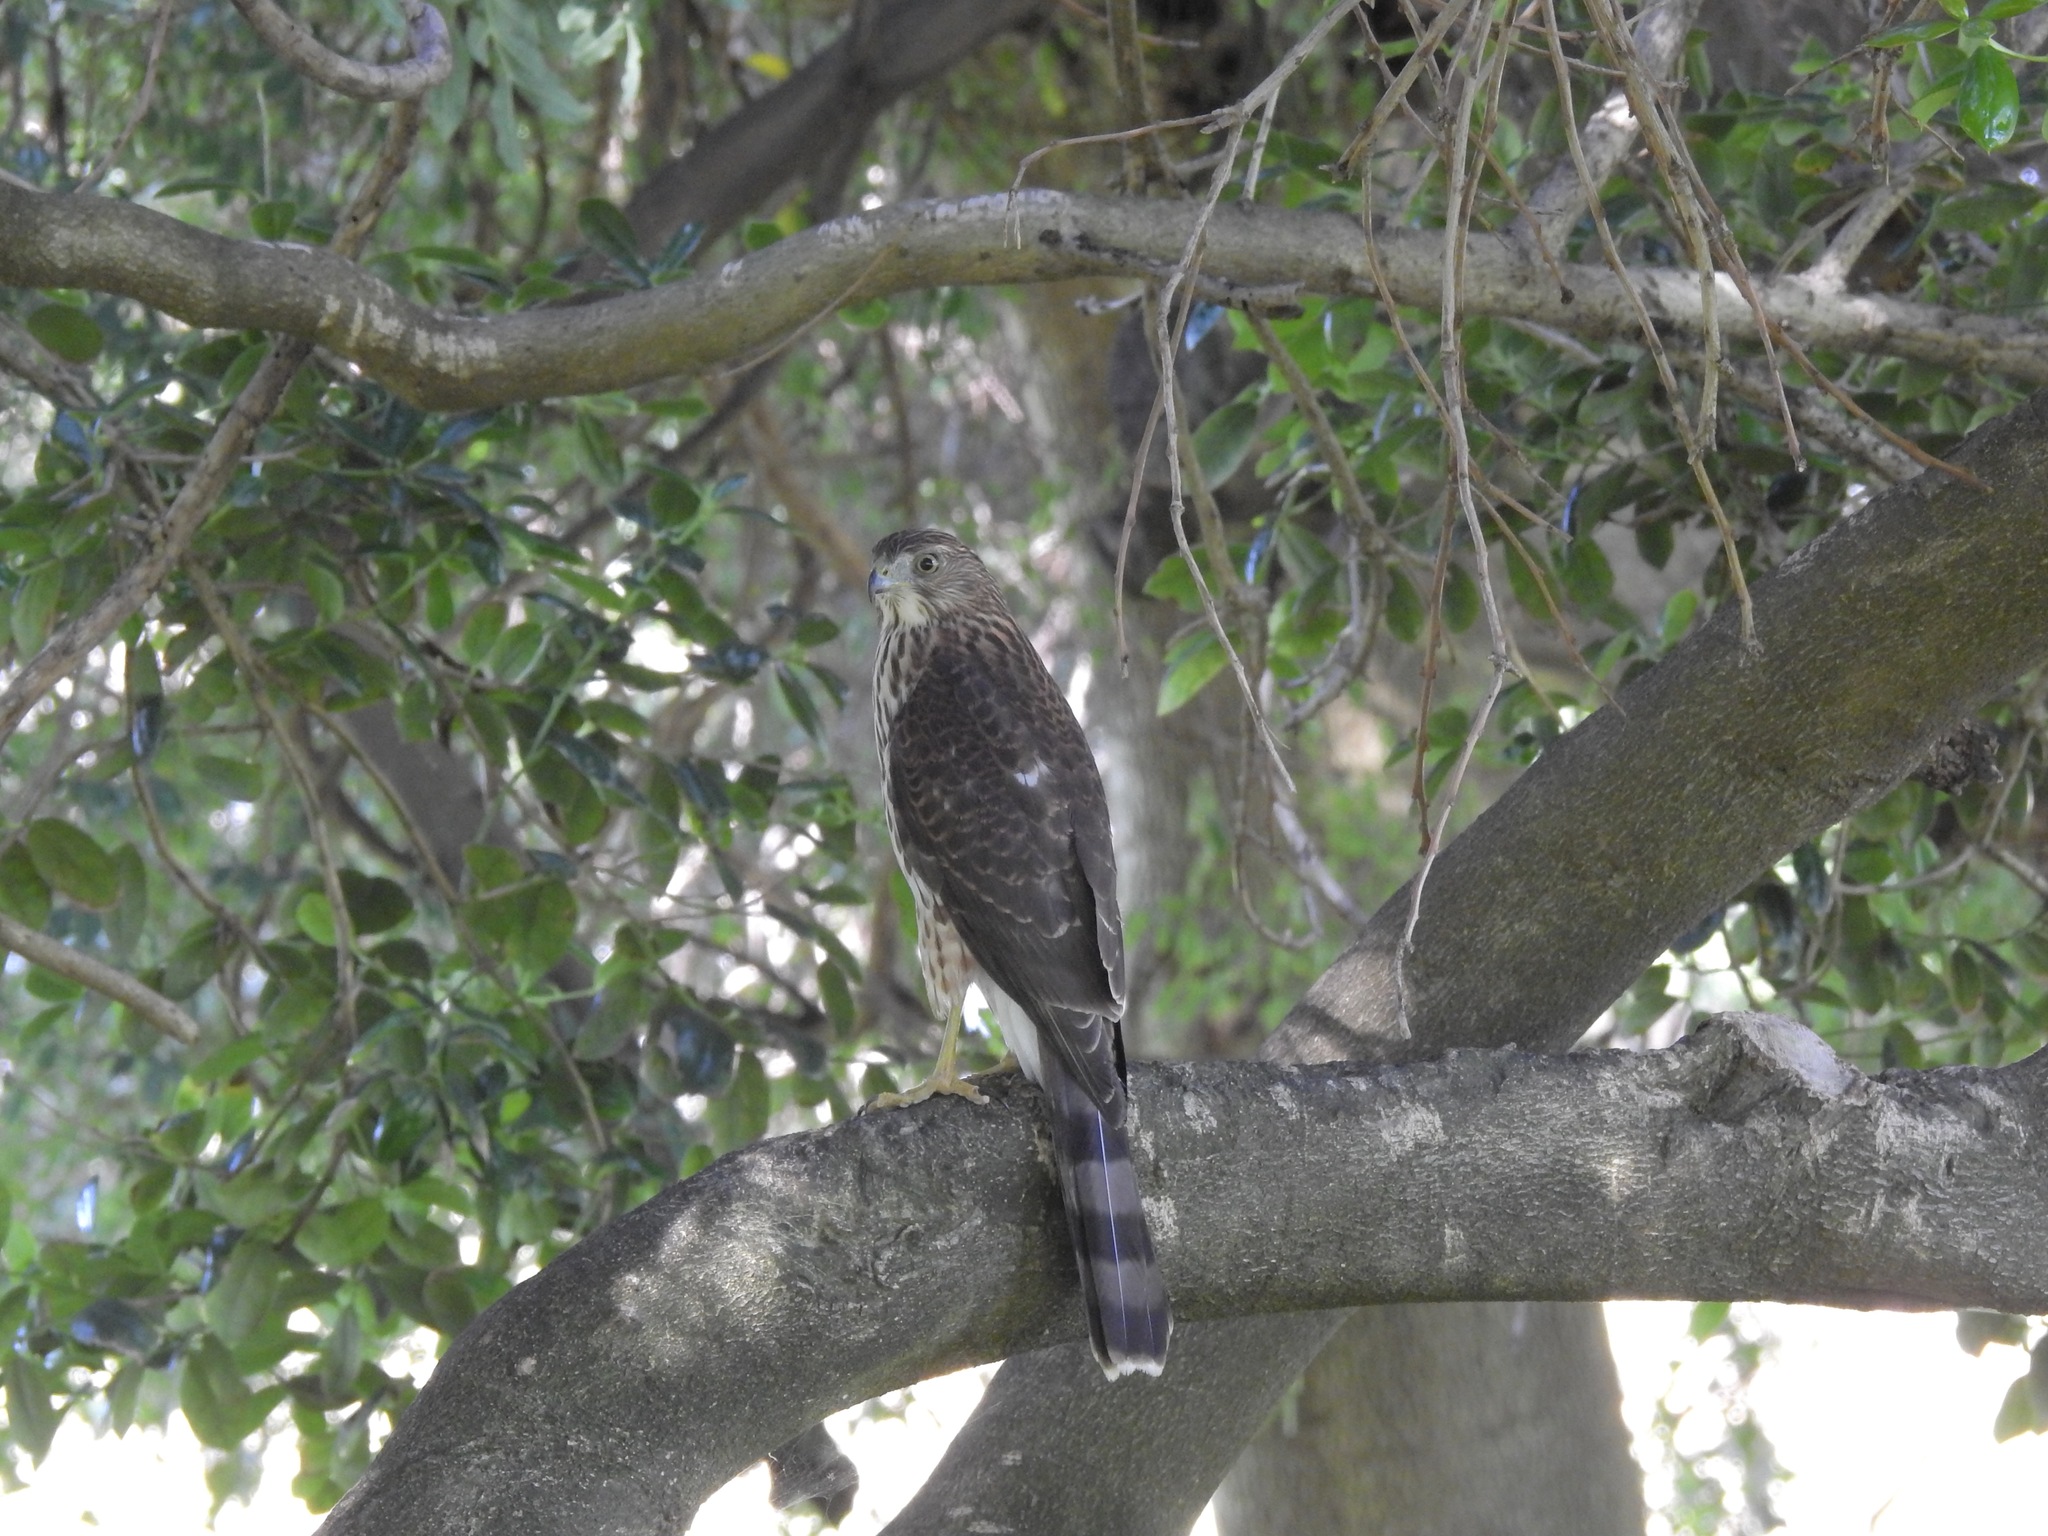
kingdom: Animalia
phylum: Chordata
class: Aves
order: Accipitriformes
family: Accipitridae
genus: Accipiter
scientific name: Accipiter cooperii
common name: Cooper's hawk
